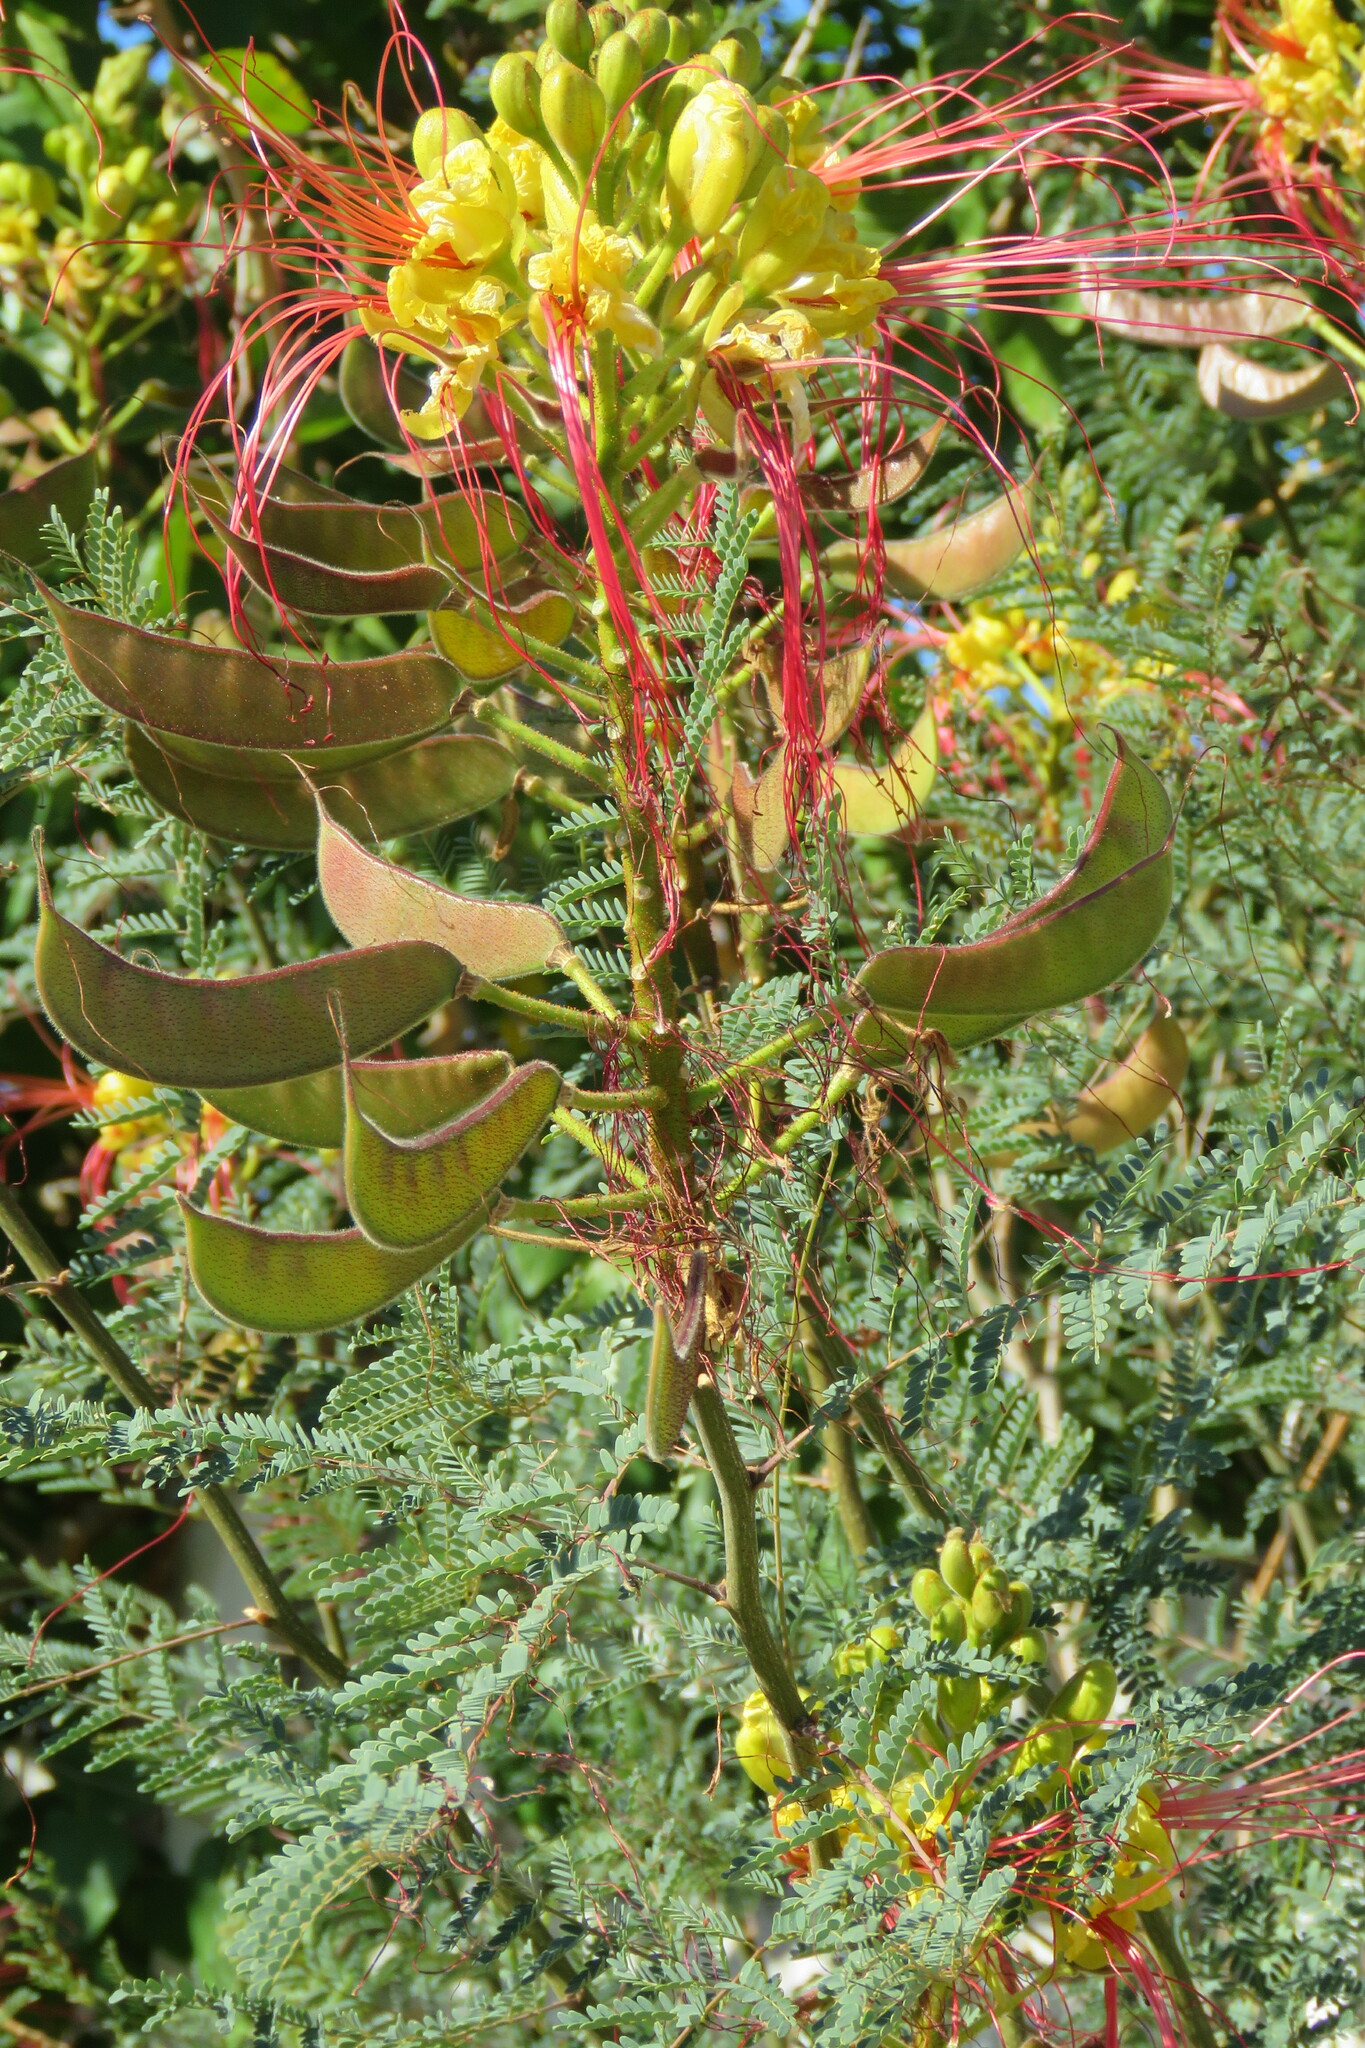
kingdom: Plantae
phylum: Tracheophyta
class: Magnoliopsida
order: Fabales
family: Fabaceae
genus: Erythrostemon
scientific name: Erythrostemon gilliesii
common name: Bird-of-paradise shrub
